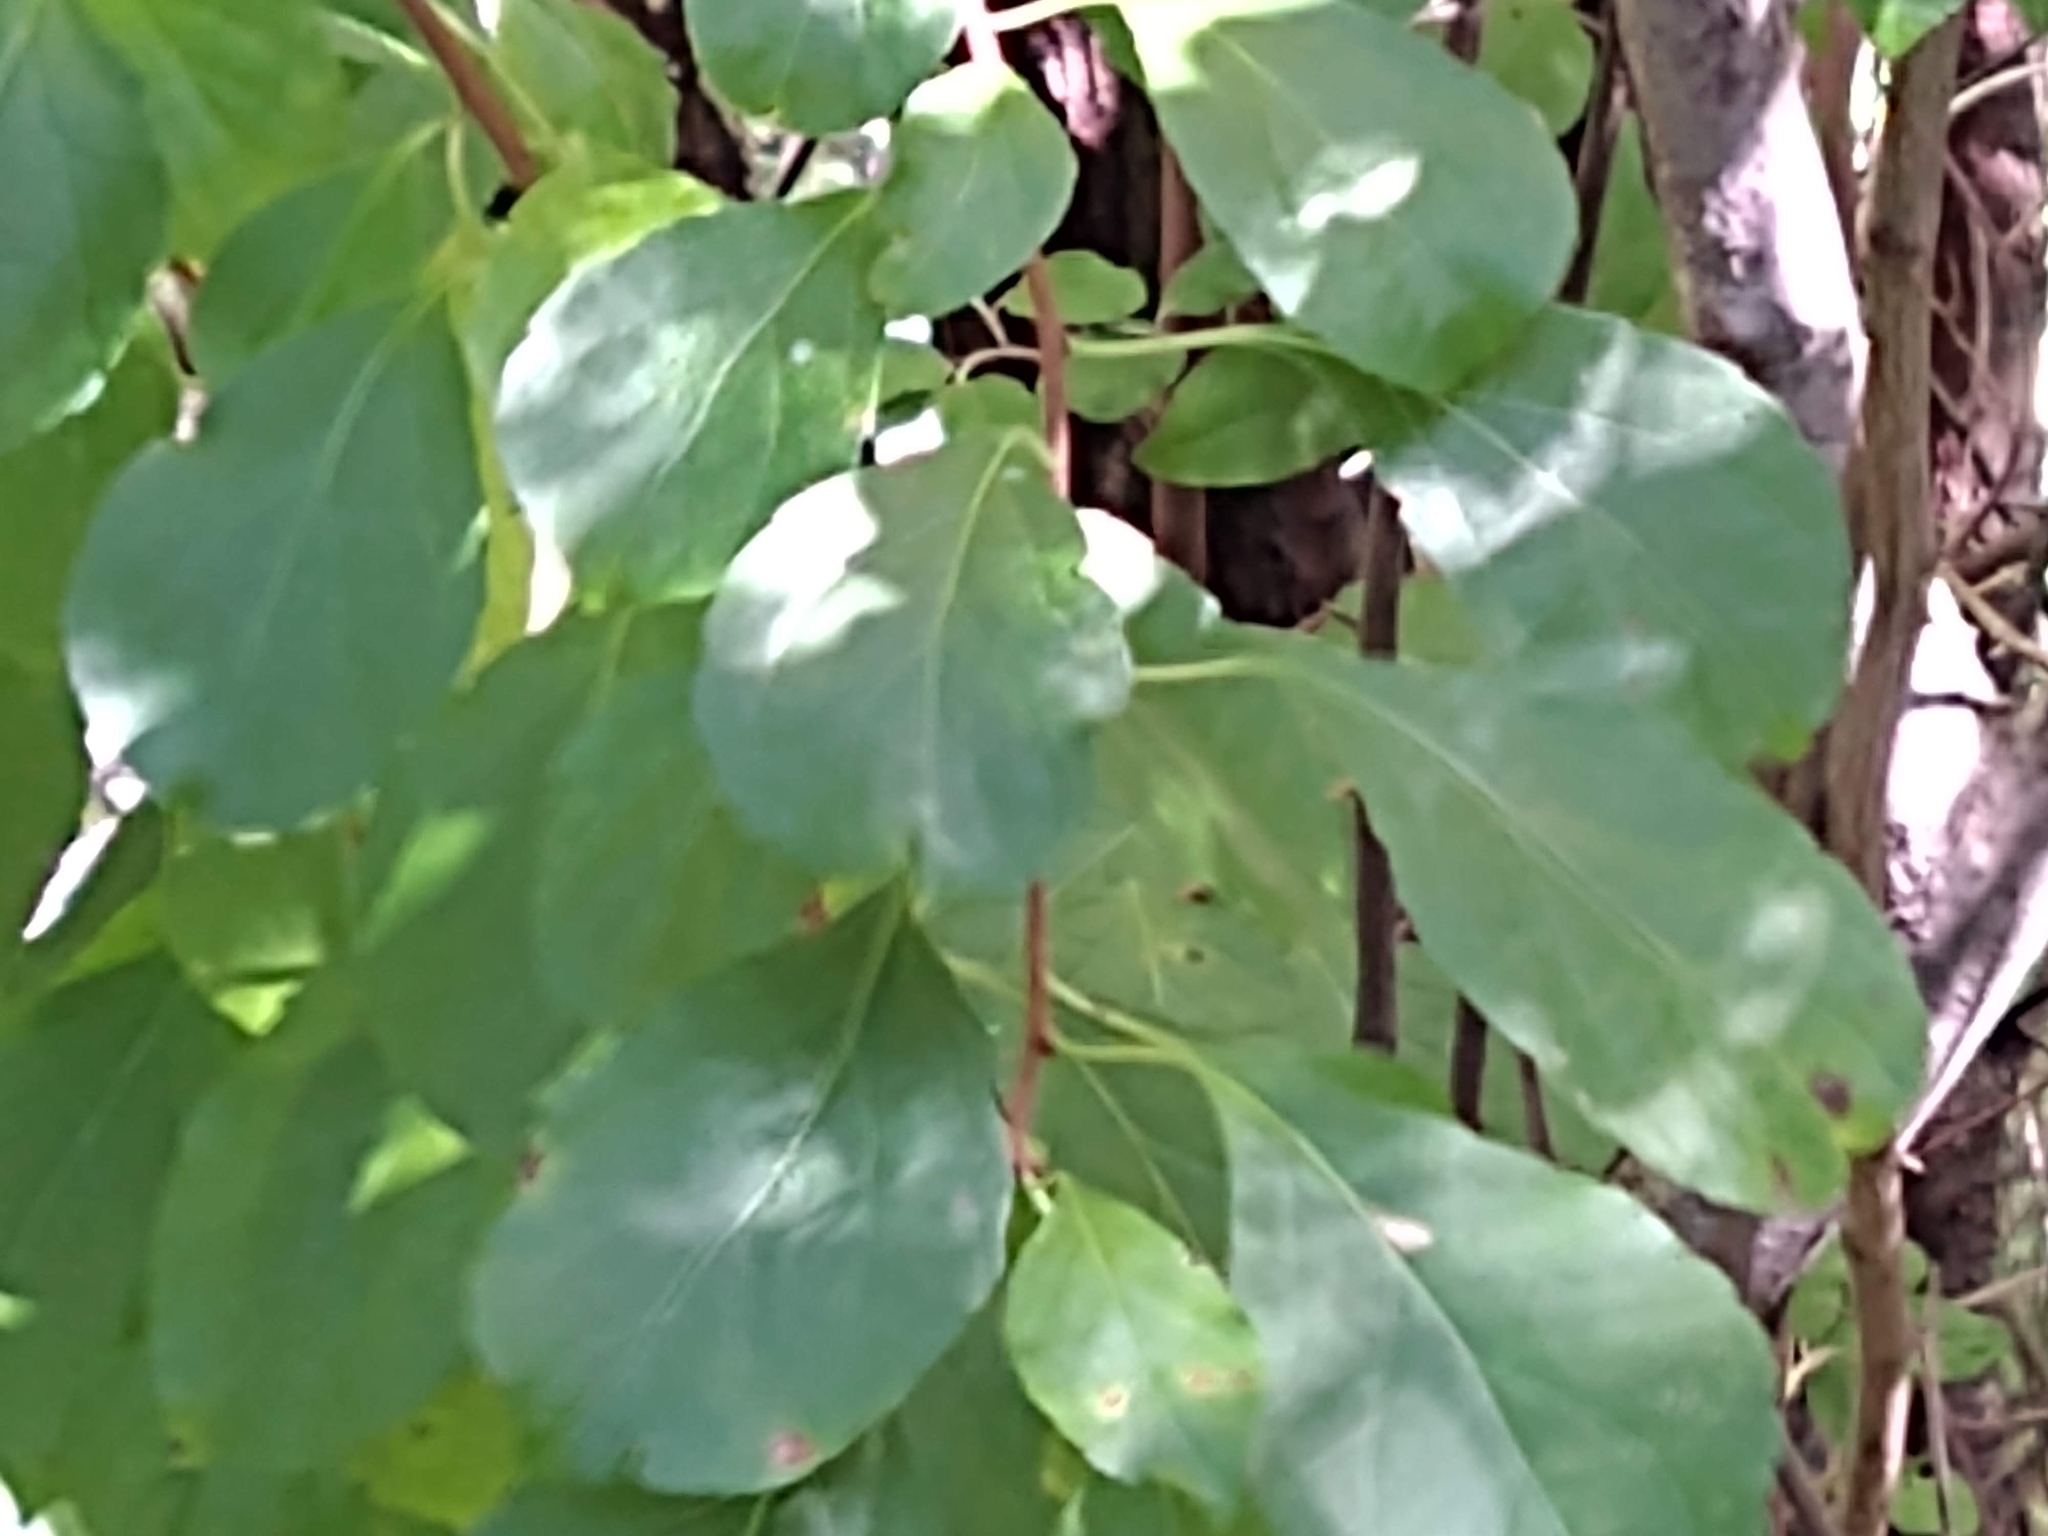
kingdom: Plantae
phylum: Tracheophyta
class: Magnoliopsida
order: Celastrales
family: Celastraceae
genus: Celastrus
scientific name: Celastrus orbiculatus
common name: Oriental bittersweet
